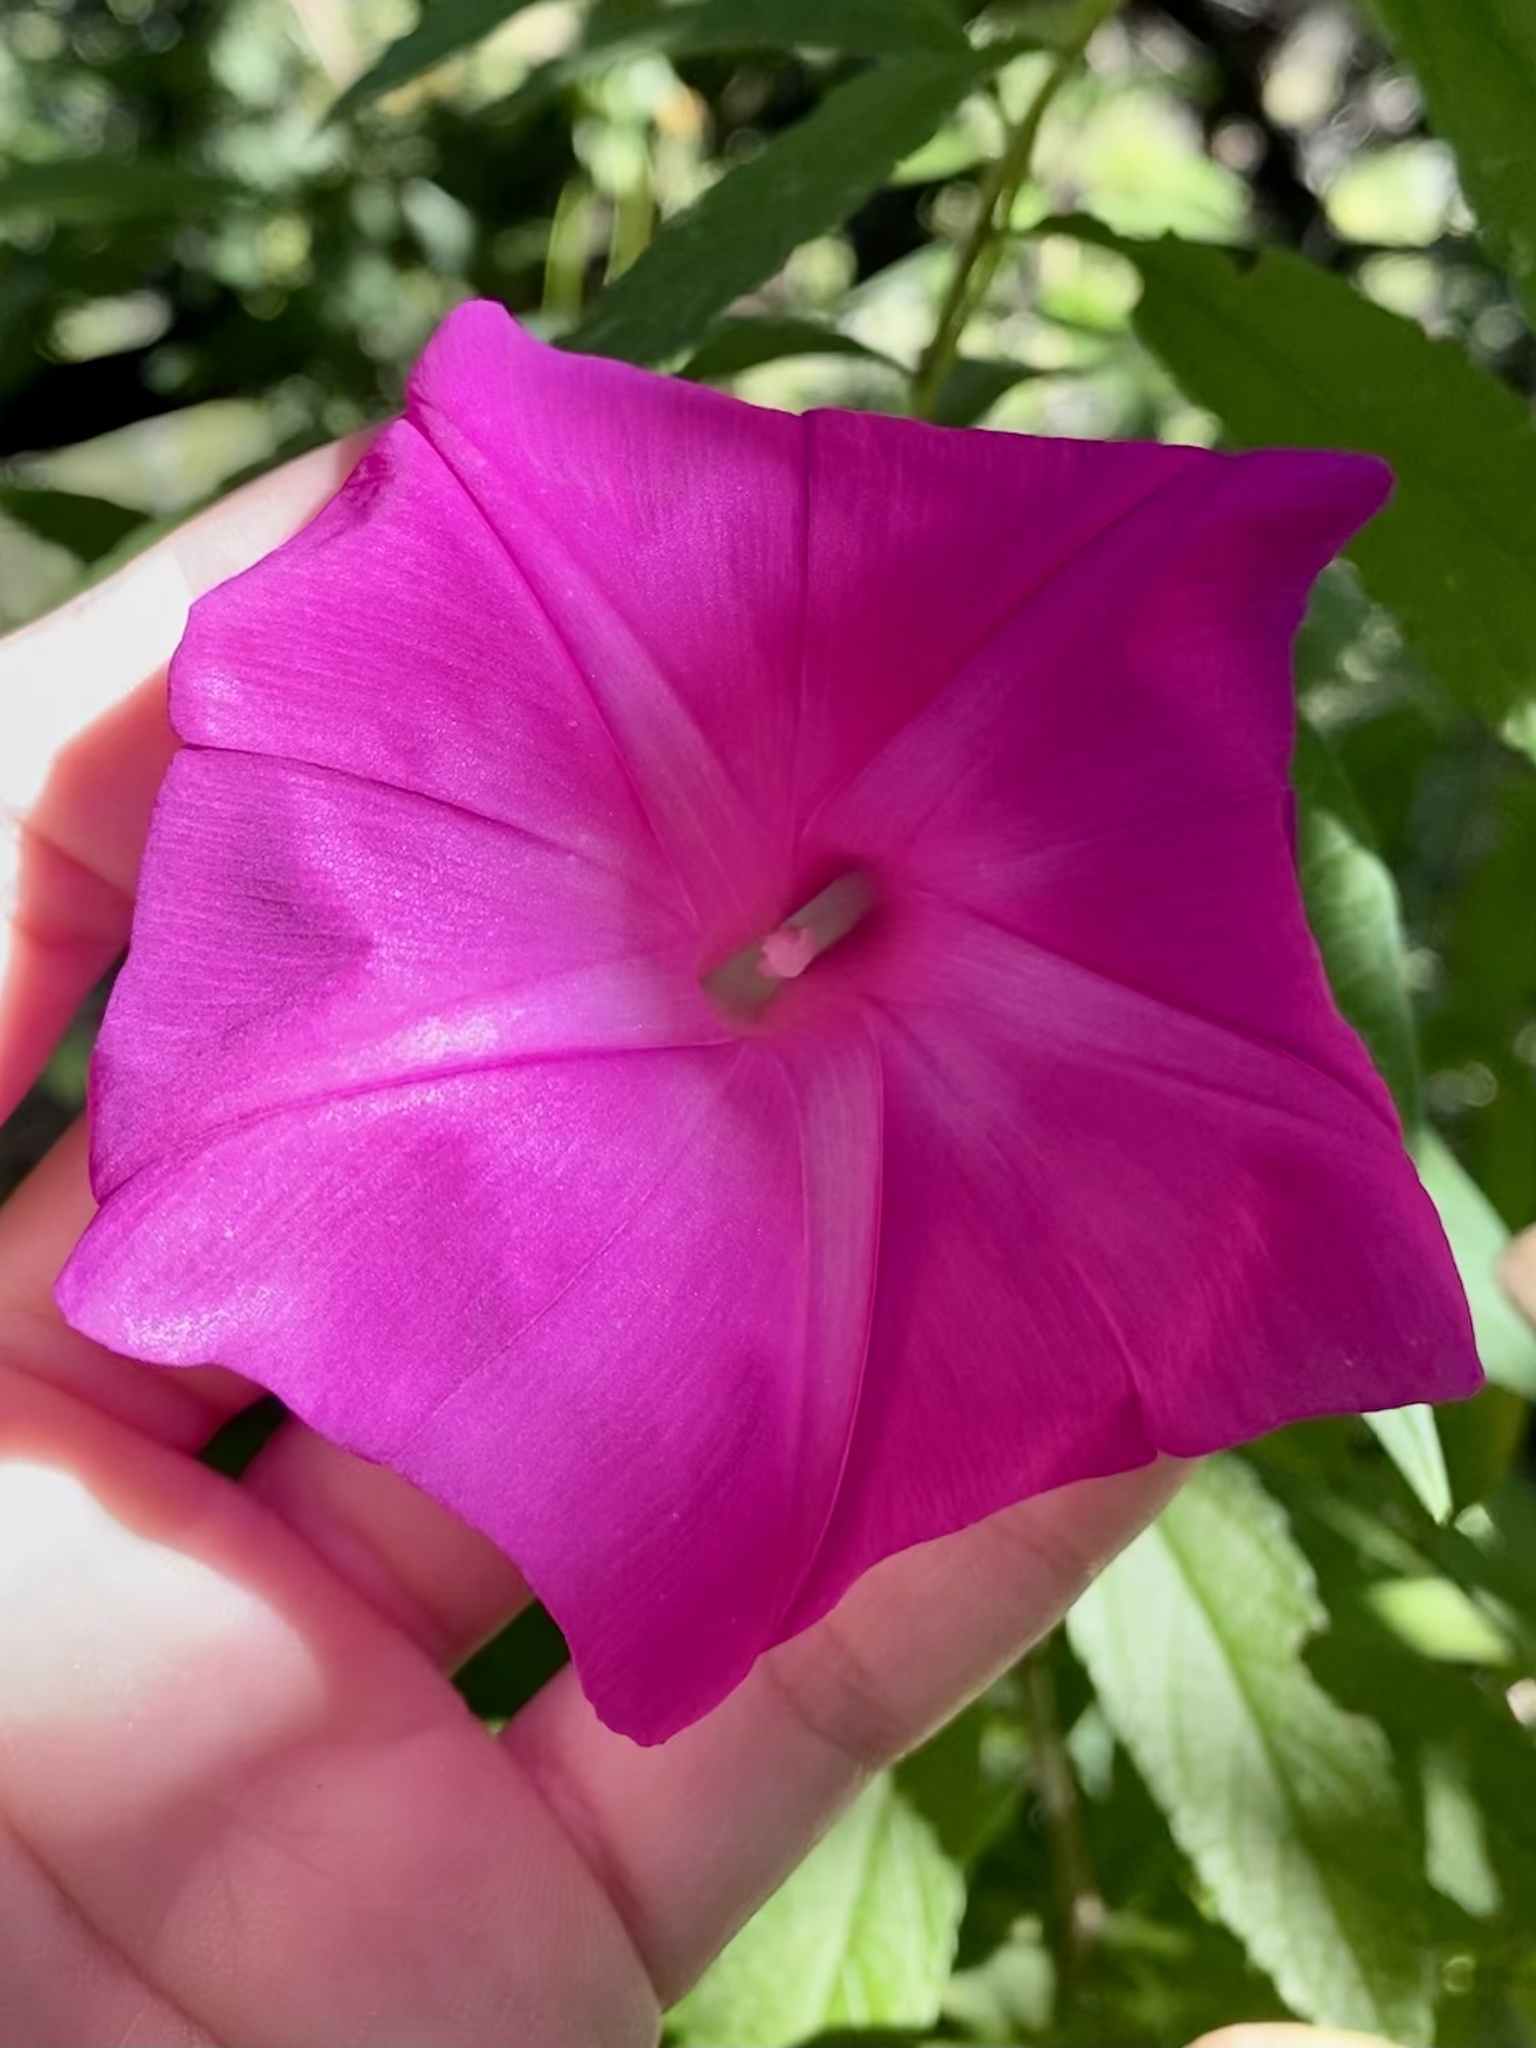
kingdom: Plantae
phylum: Tracheophyta
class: Magnoliopsida
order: Solanales
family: Convolvulaceae
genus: Ipomoea
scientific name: Ipomoea elongata
